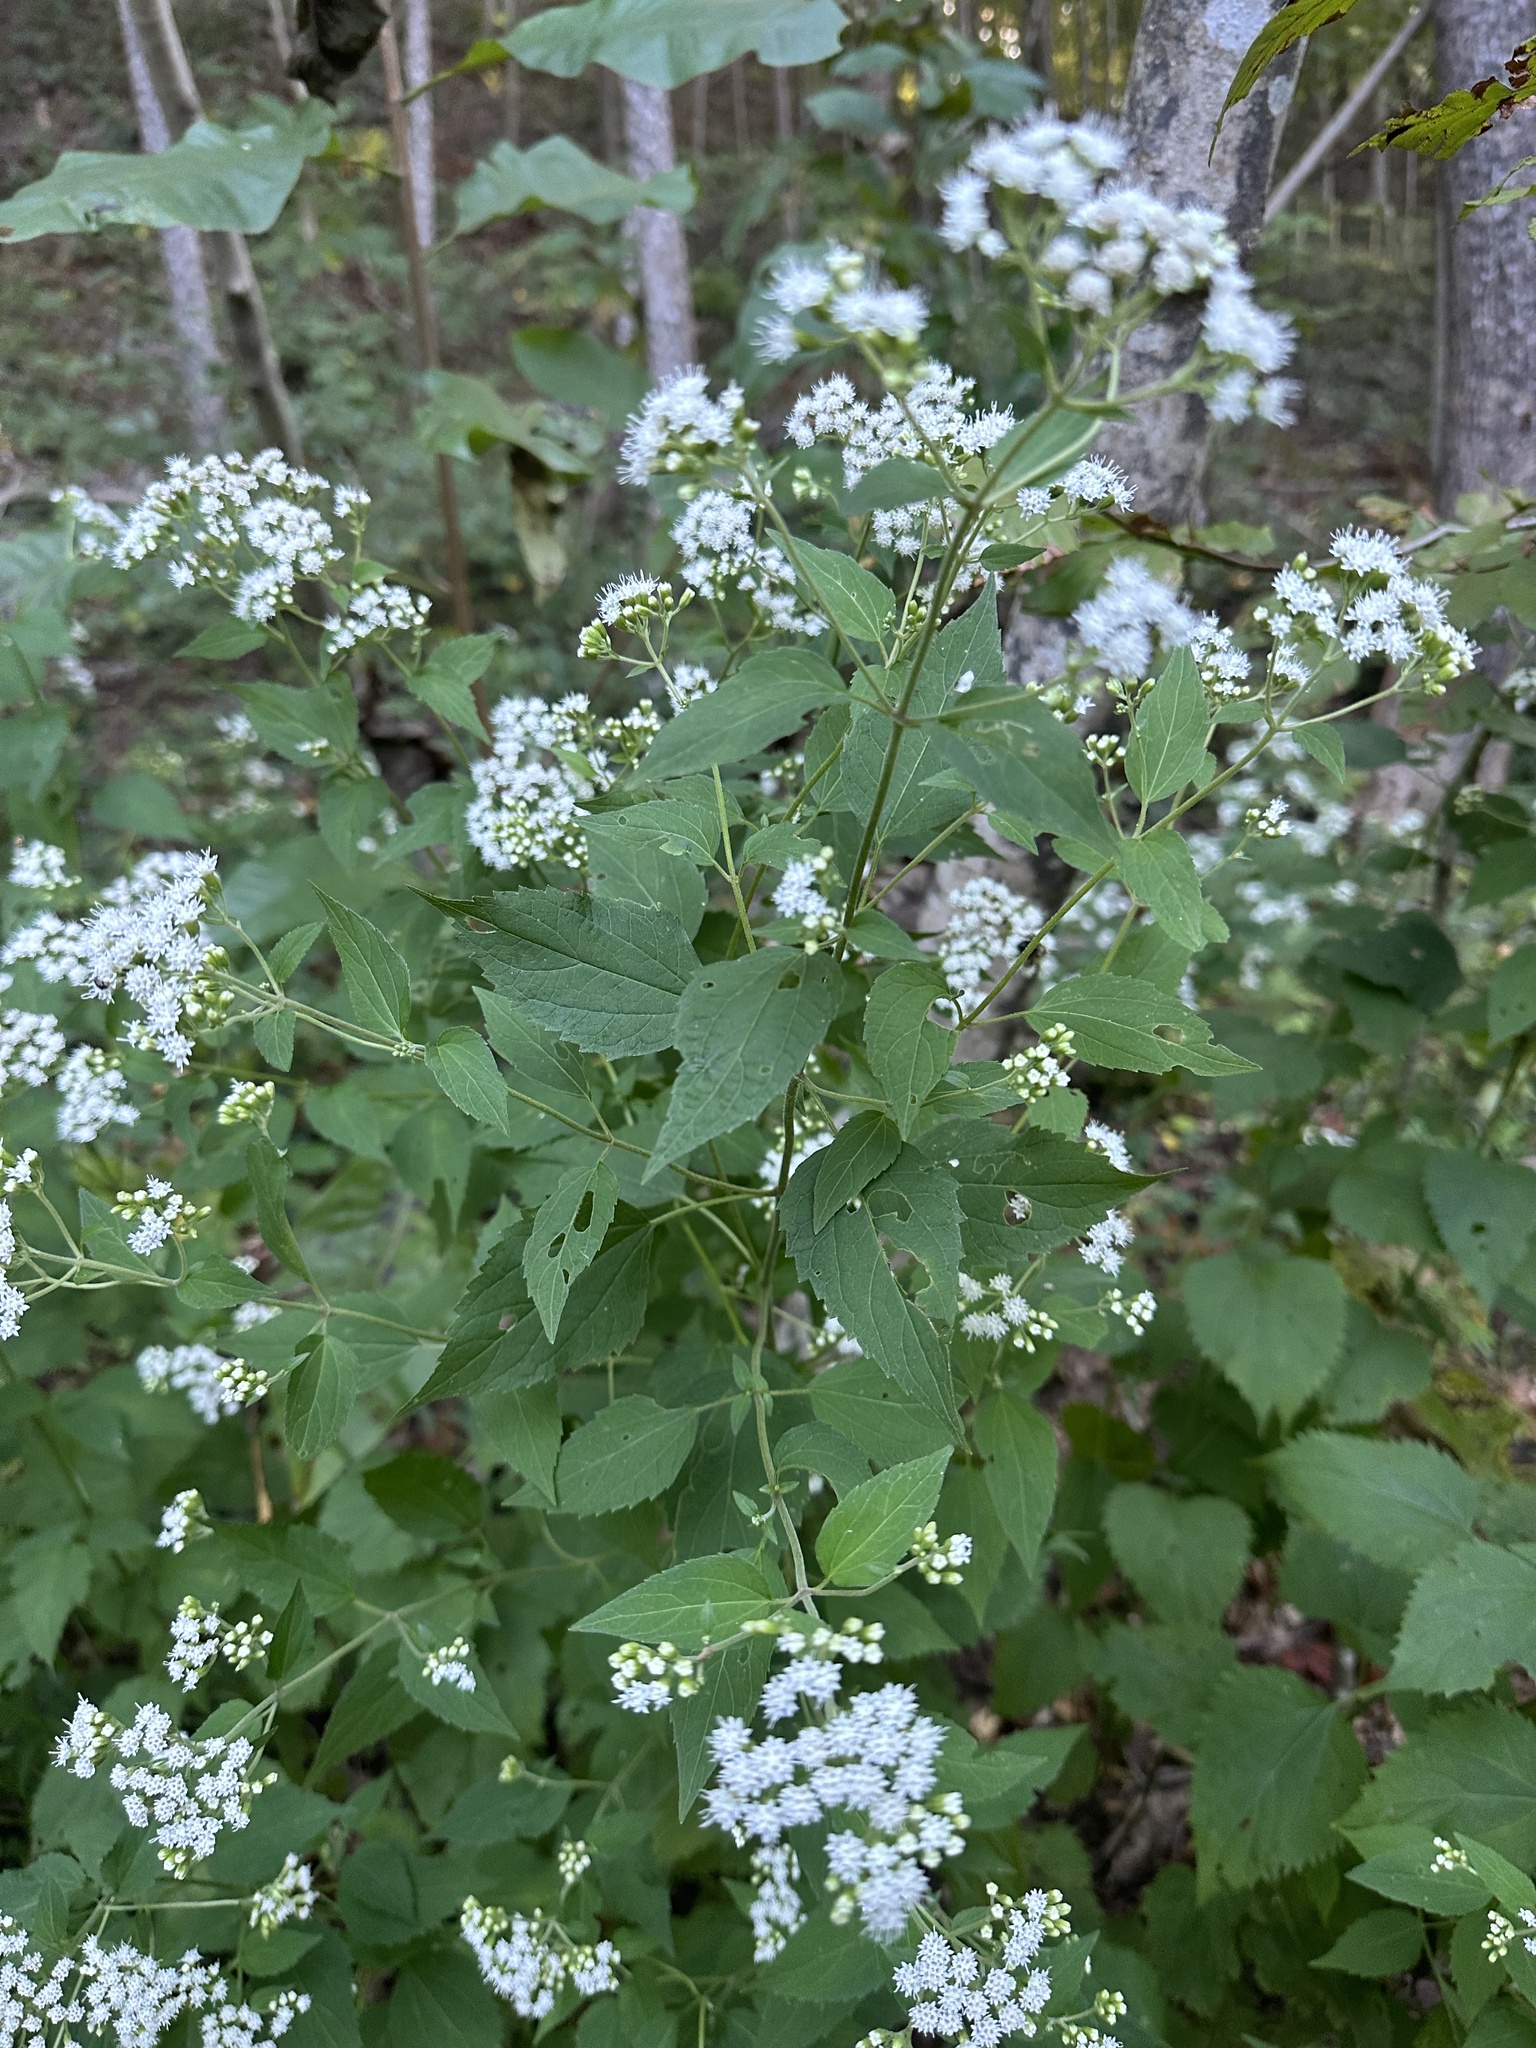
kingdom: Plantae
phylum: Tracheophyta
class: Magnoliopsida
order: Asterales
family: Asteraceae
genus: Ageratina
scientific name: Ageratina altissima
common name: White snakeroot
